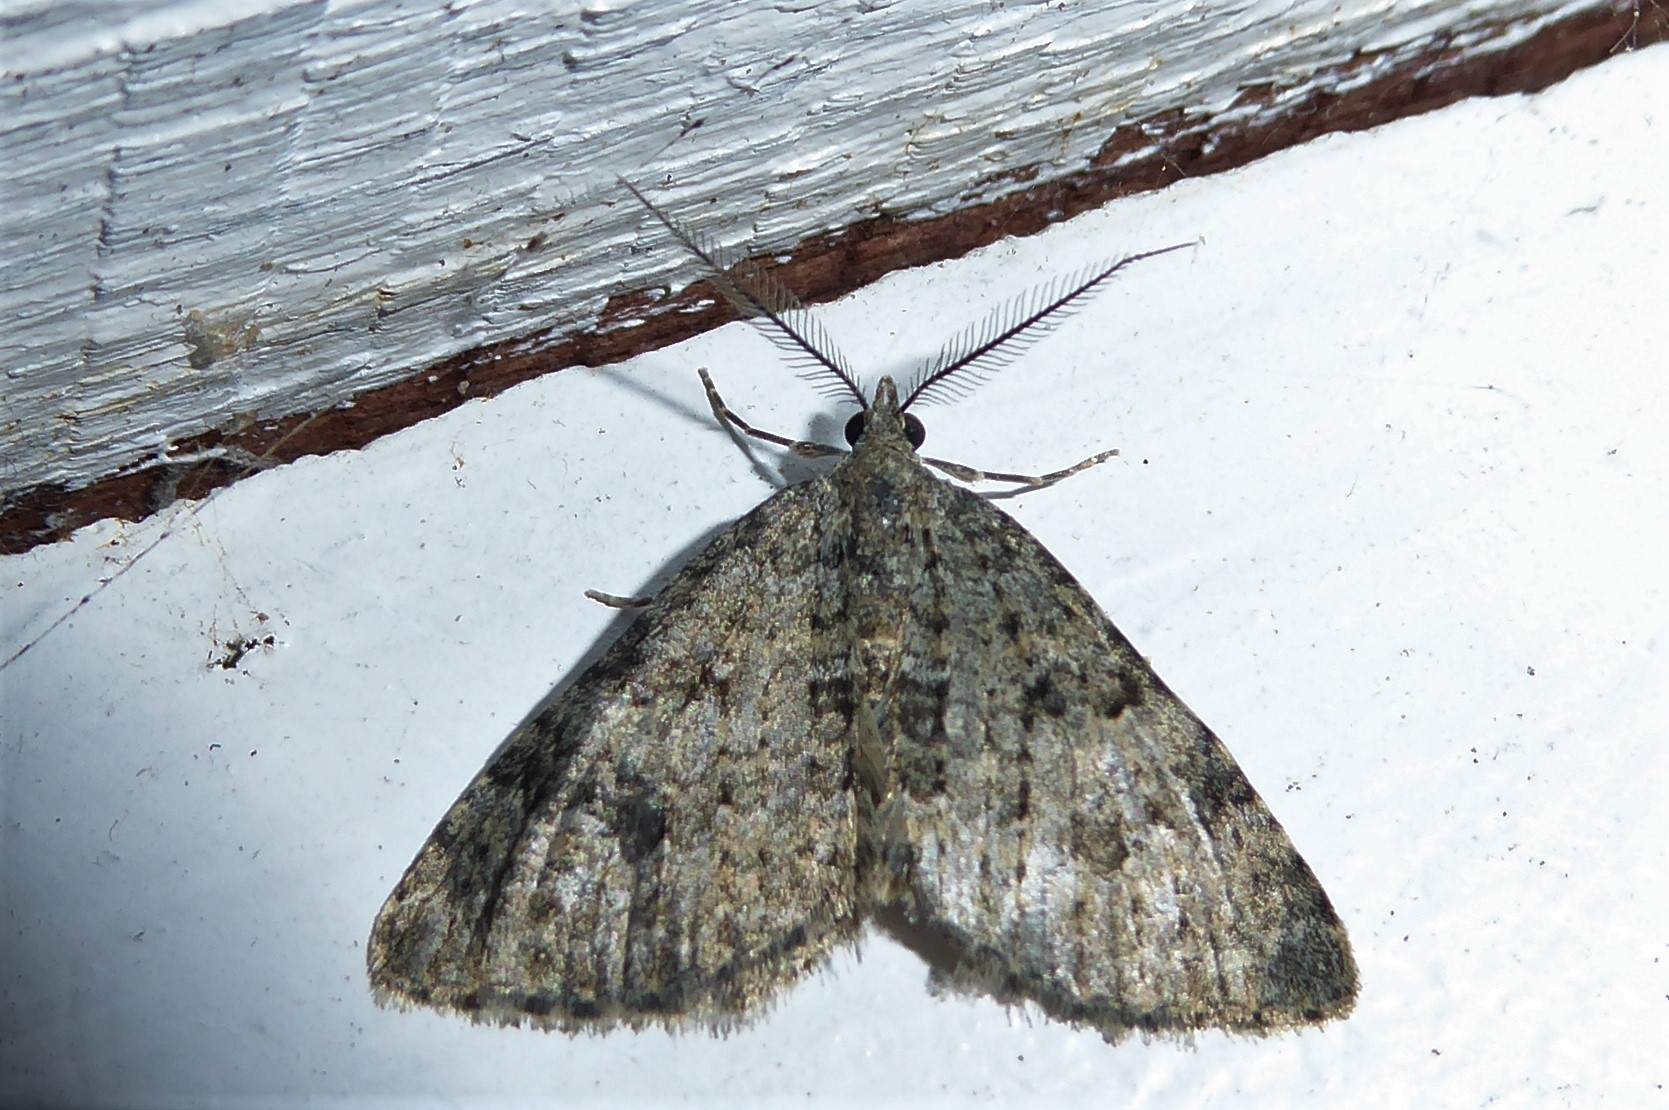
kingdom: Animalia
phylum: Arthropoda
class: Insecta
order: Lepidoptera
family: Geometridae
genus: Helastia
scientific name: Helastia corcularia
